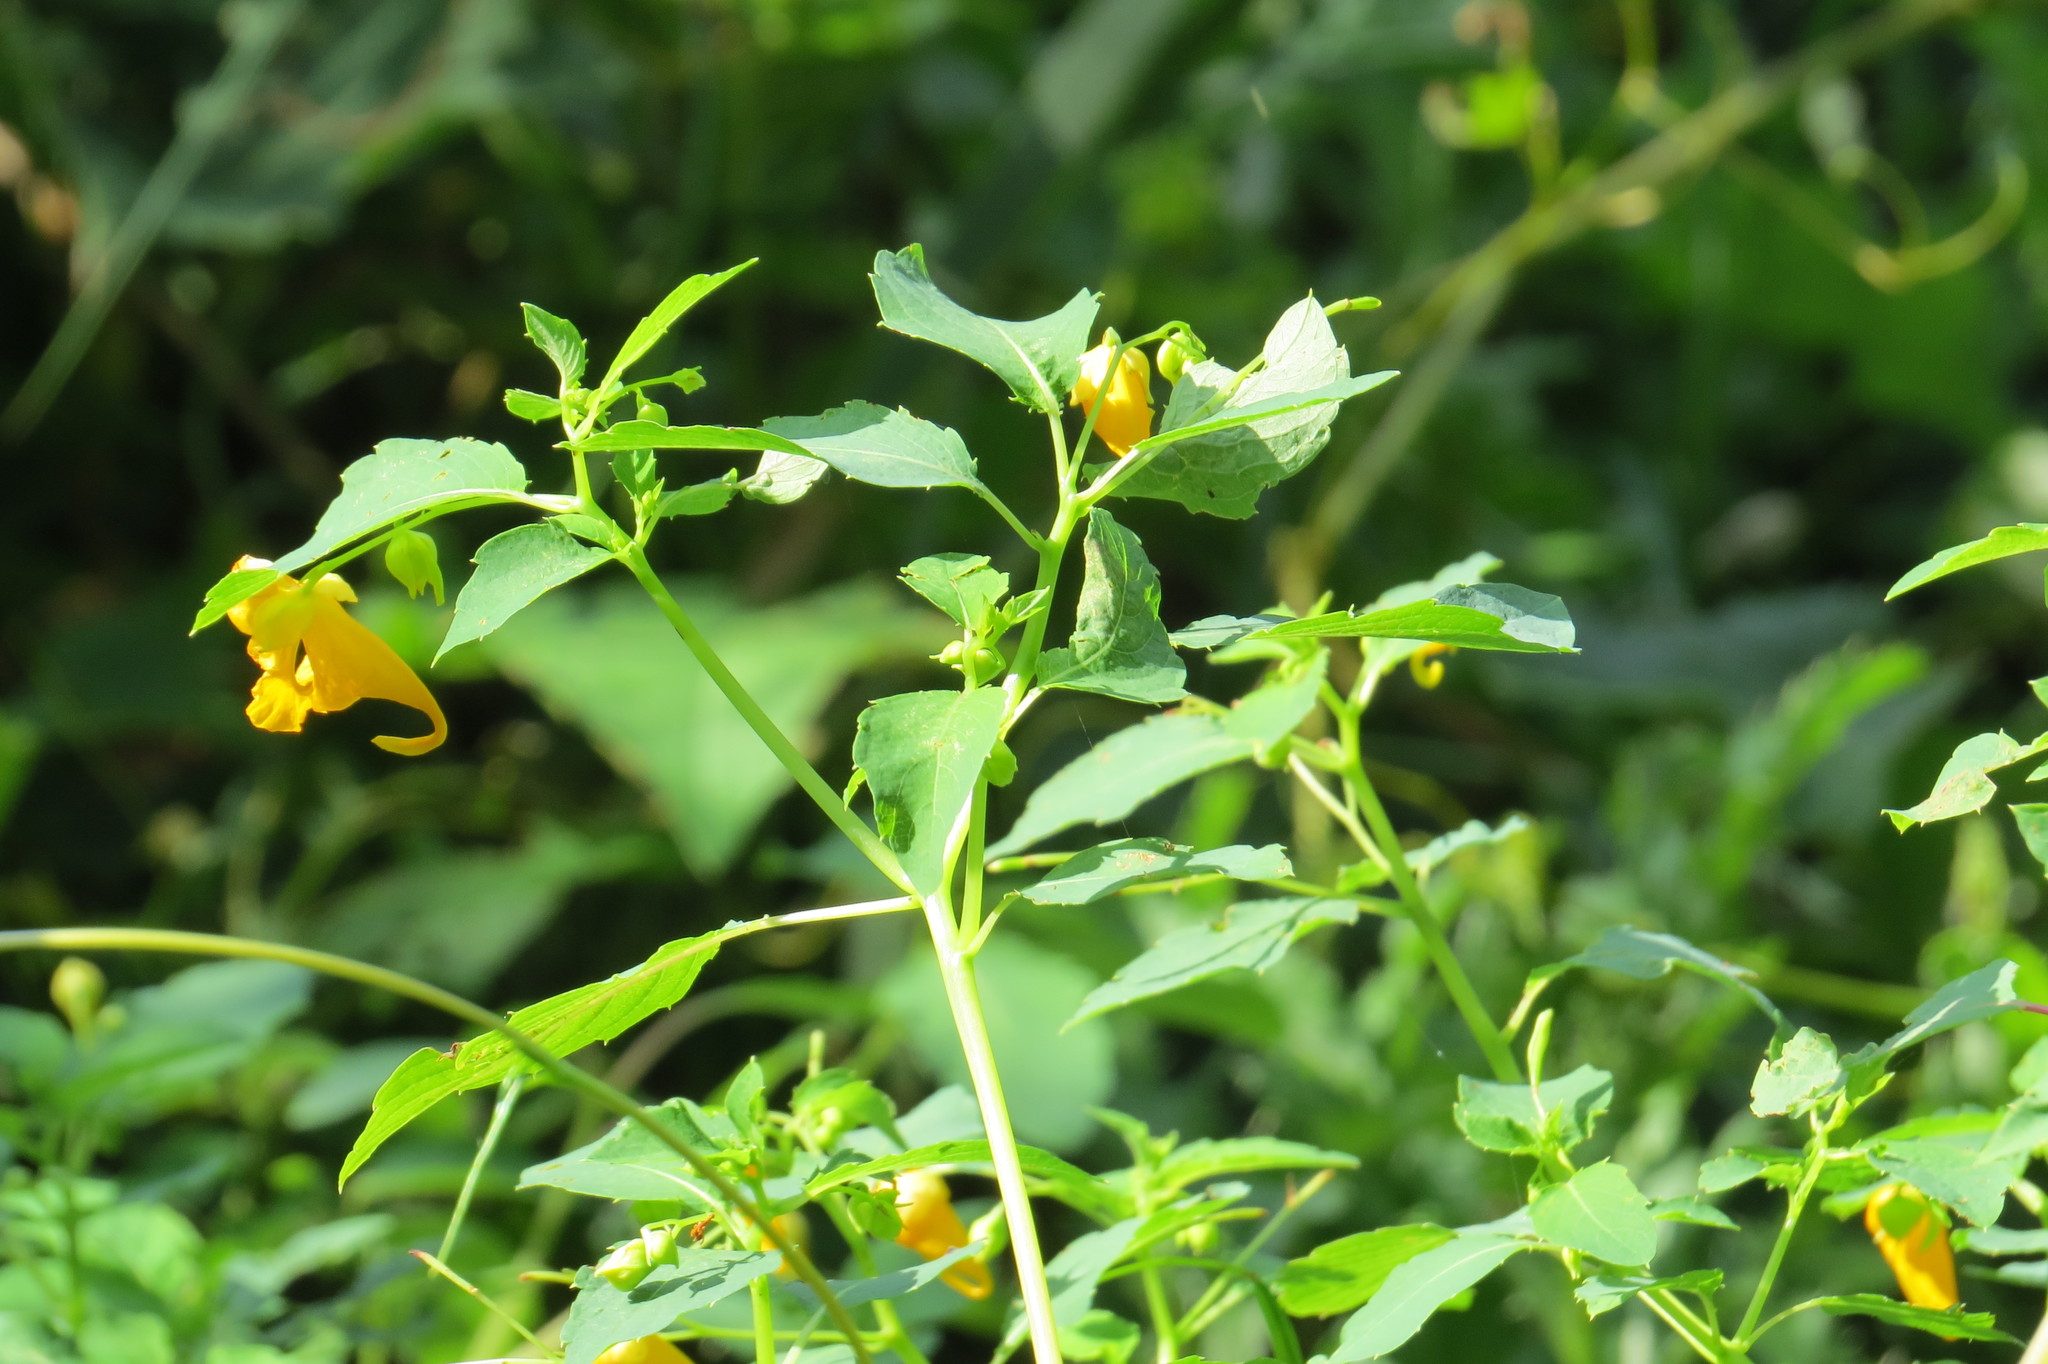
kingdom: Plantae
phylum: Tracheophyta
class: Magnoliopsida
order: Ericales
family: Balsaminaceae
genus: Impatiens
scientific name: Impatiens capensis
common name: Orange balsam
